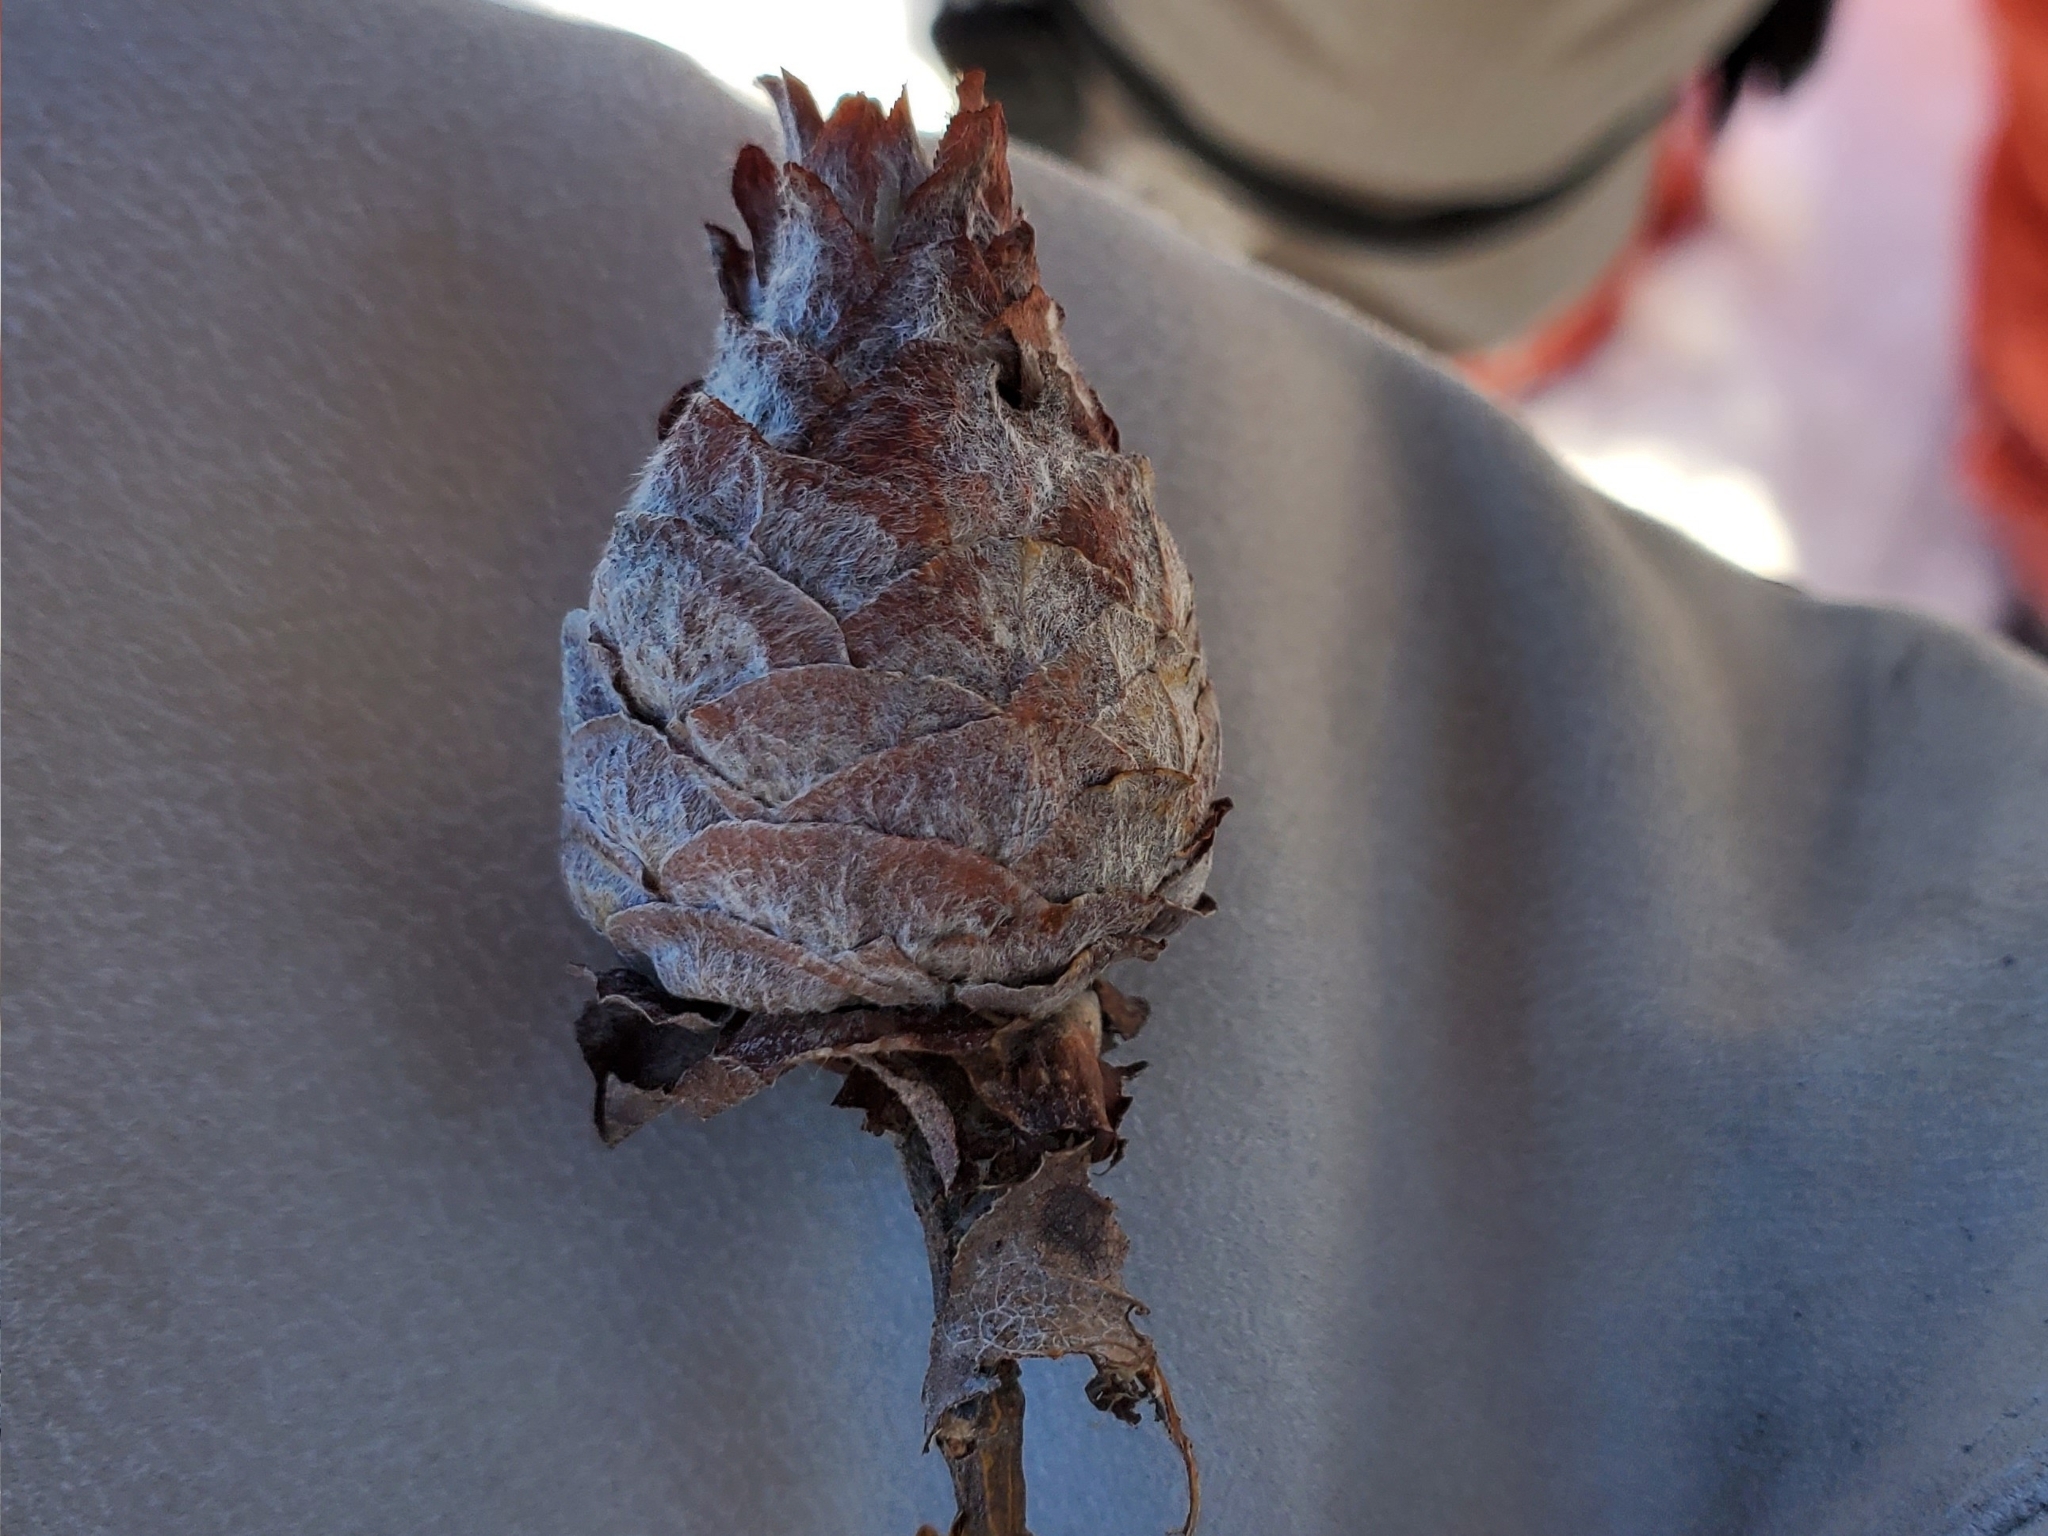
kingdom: Animalia
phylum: Arthropoda
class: Insecta
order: Diptera
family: Cecidomyiidae
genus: Rabdophaga
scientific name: Rabdophaga strobiloides
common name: Willow pinecone gall midge
